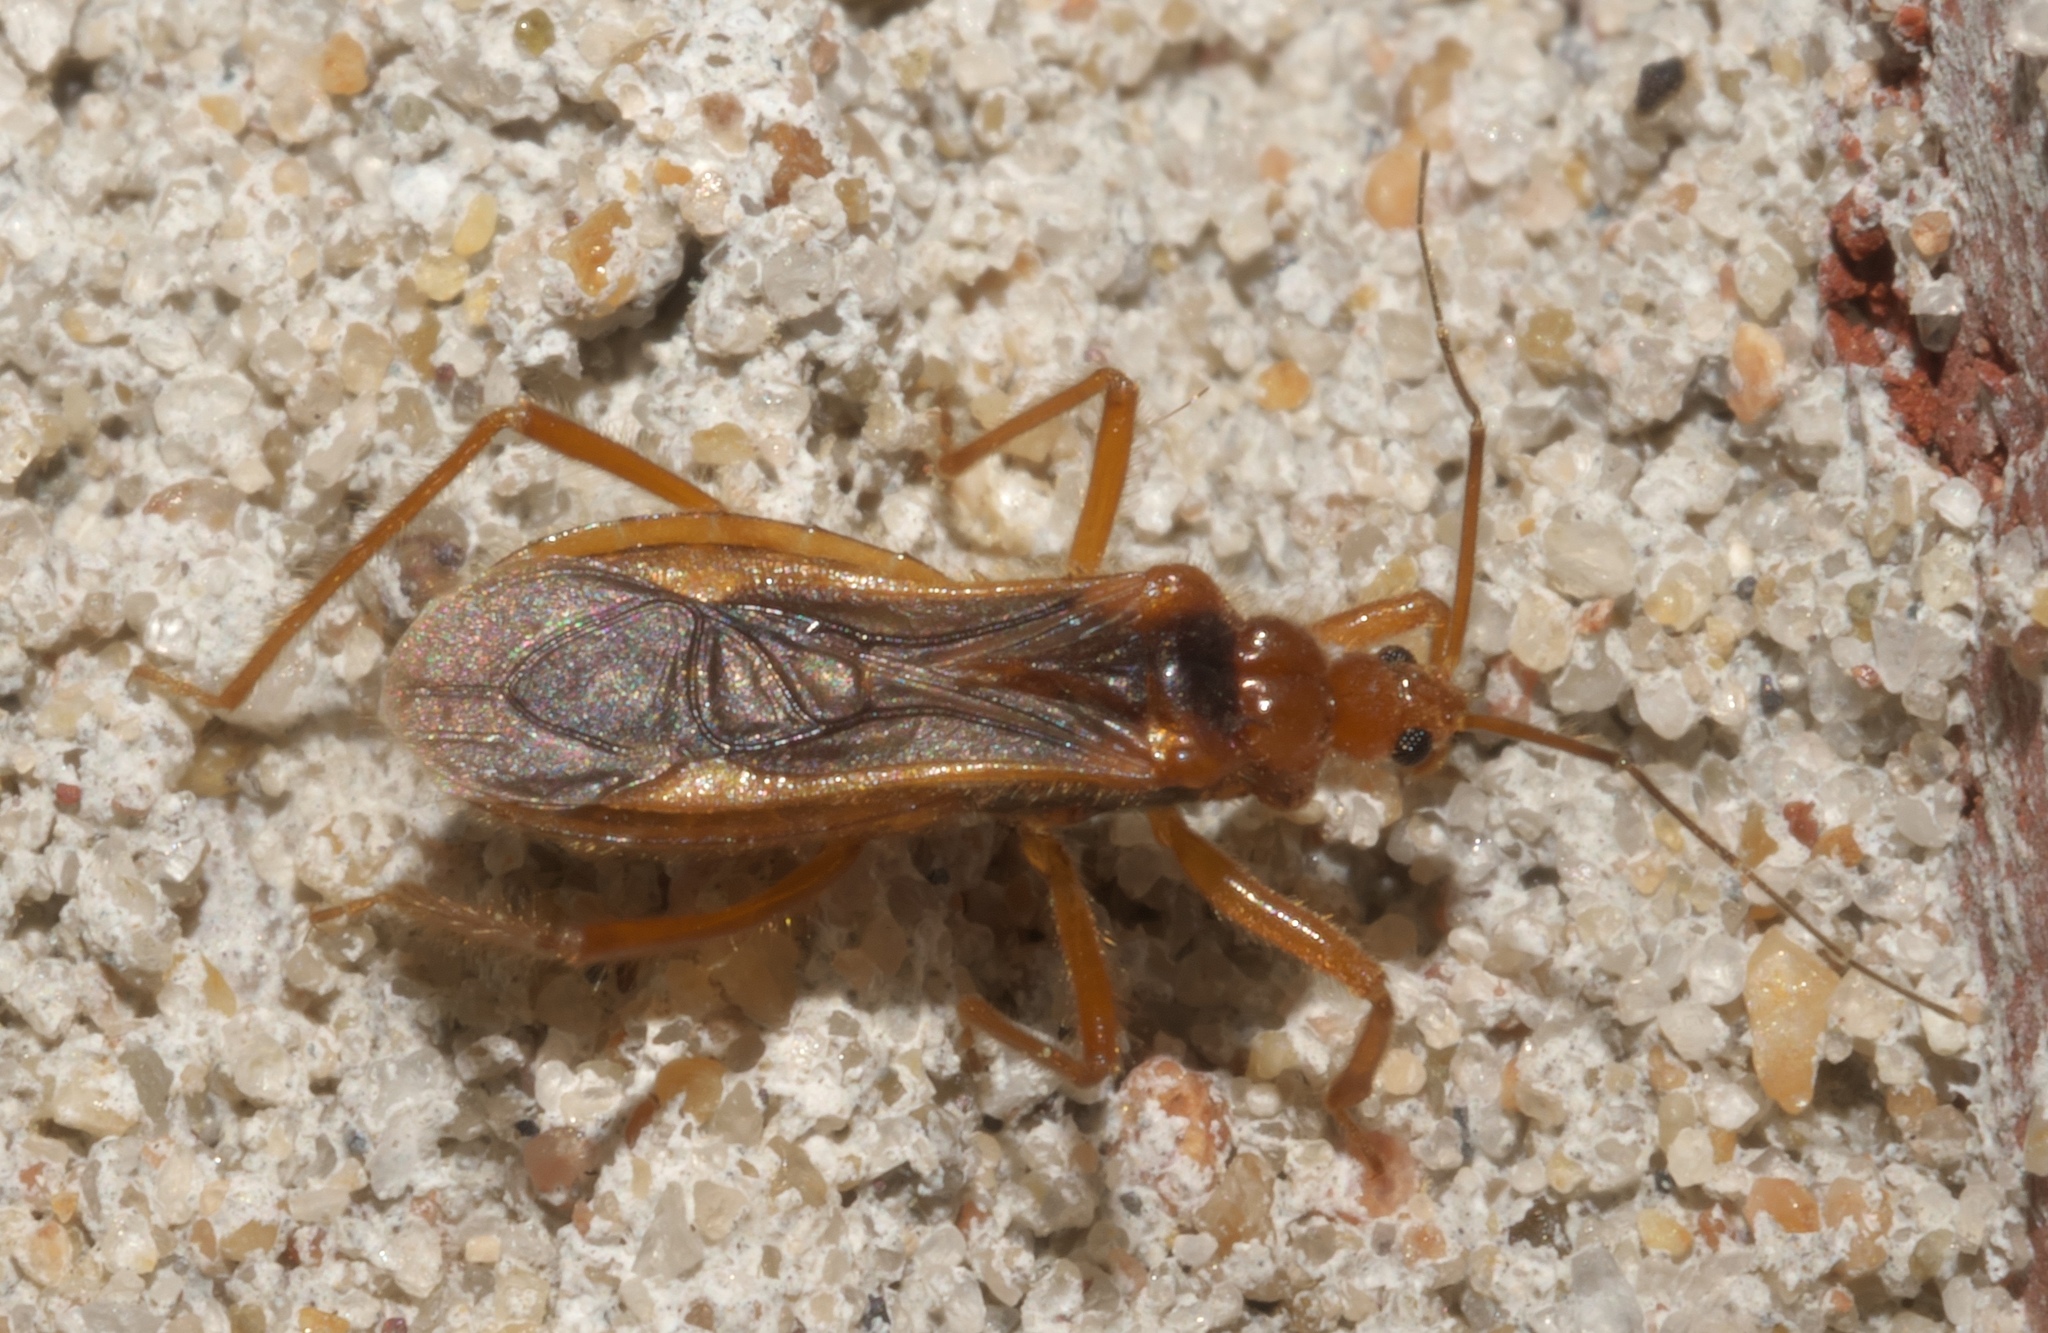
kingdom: Animalia
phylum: Arthropoda
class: Insecta
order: Hemiptera
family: Reduviidae
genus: Oncerotrachelus
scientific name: Oncerotrachelus acuminatus
